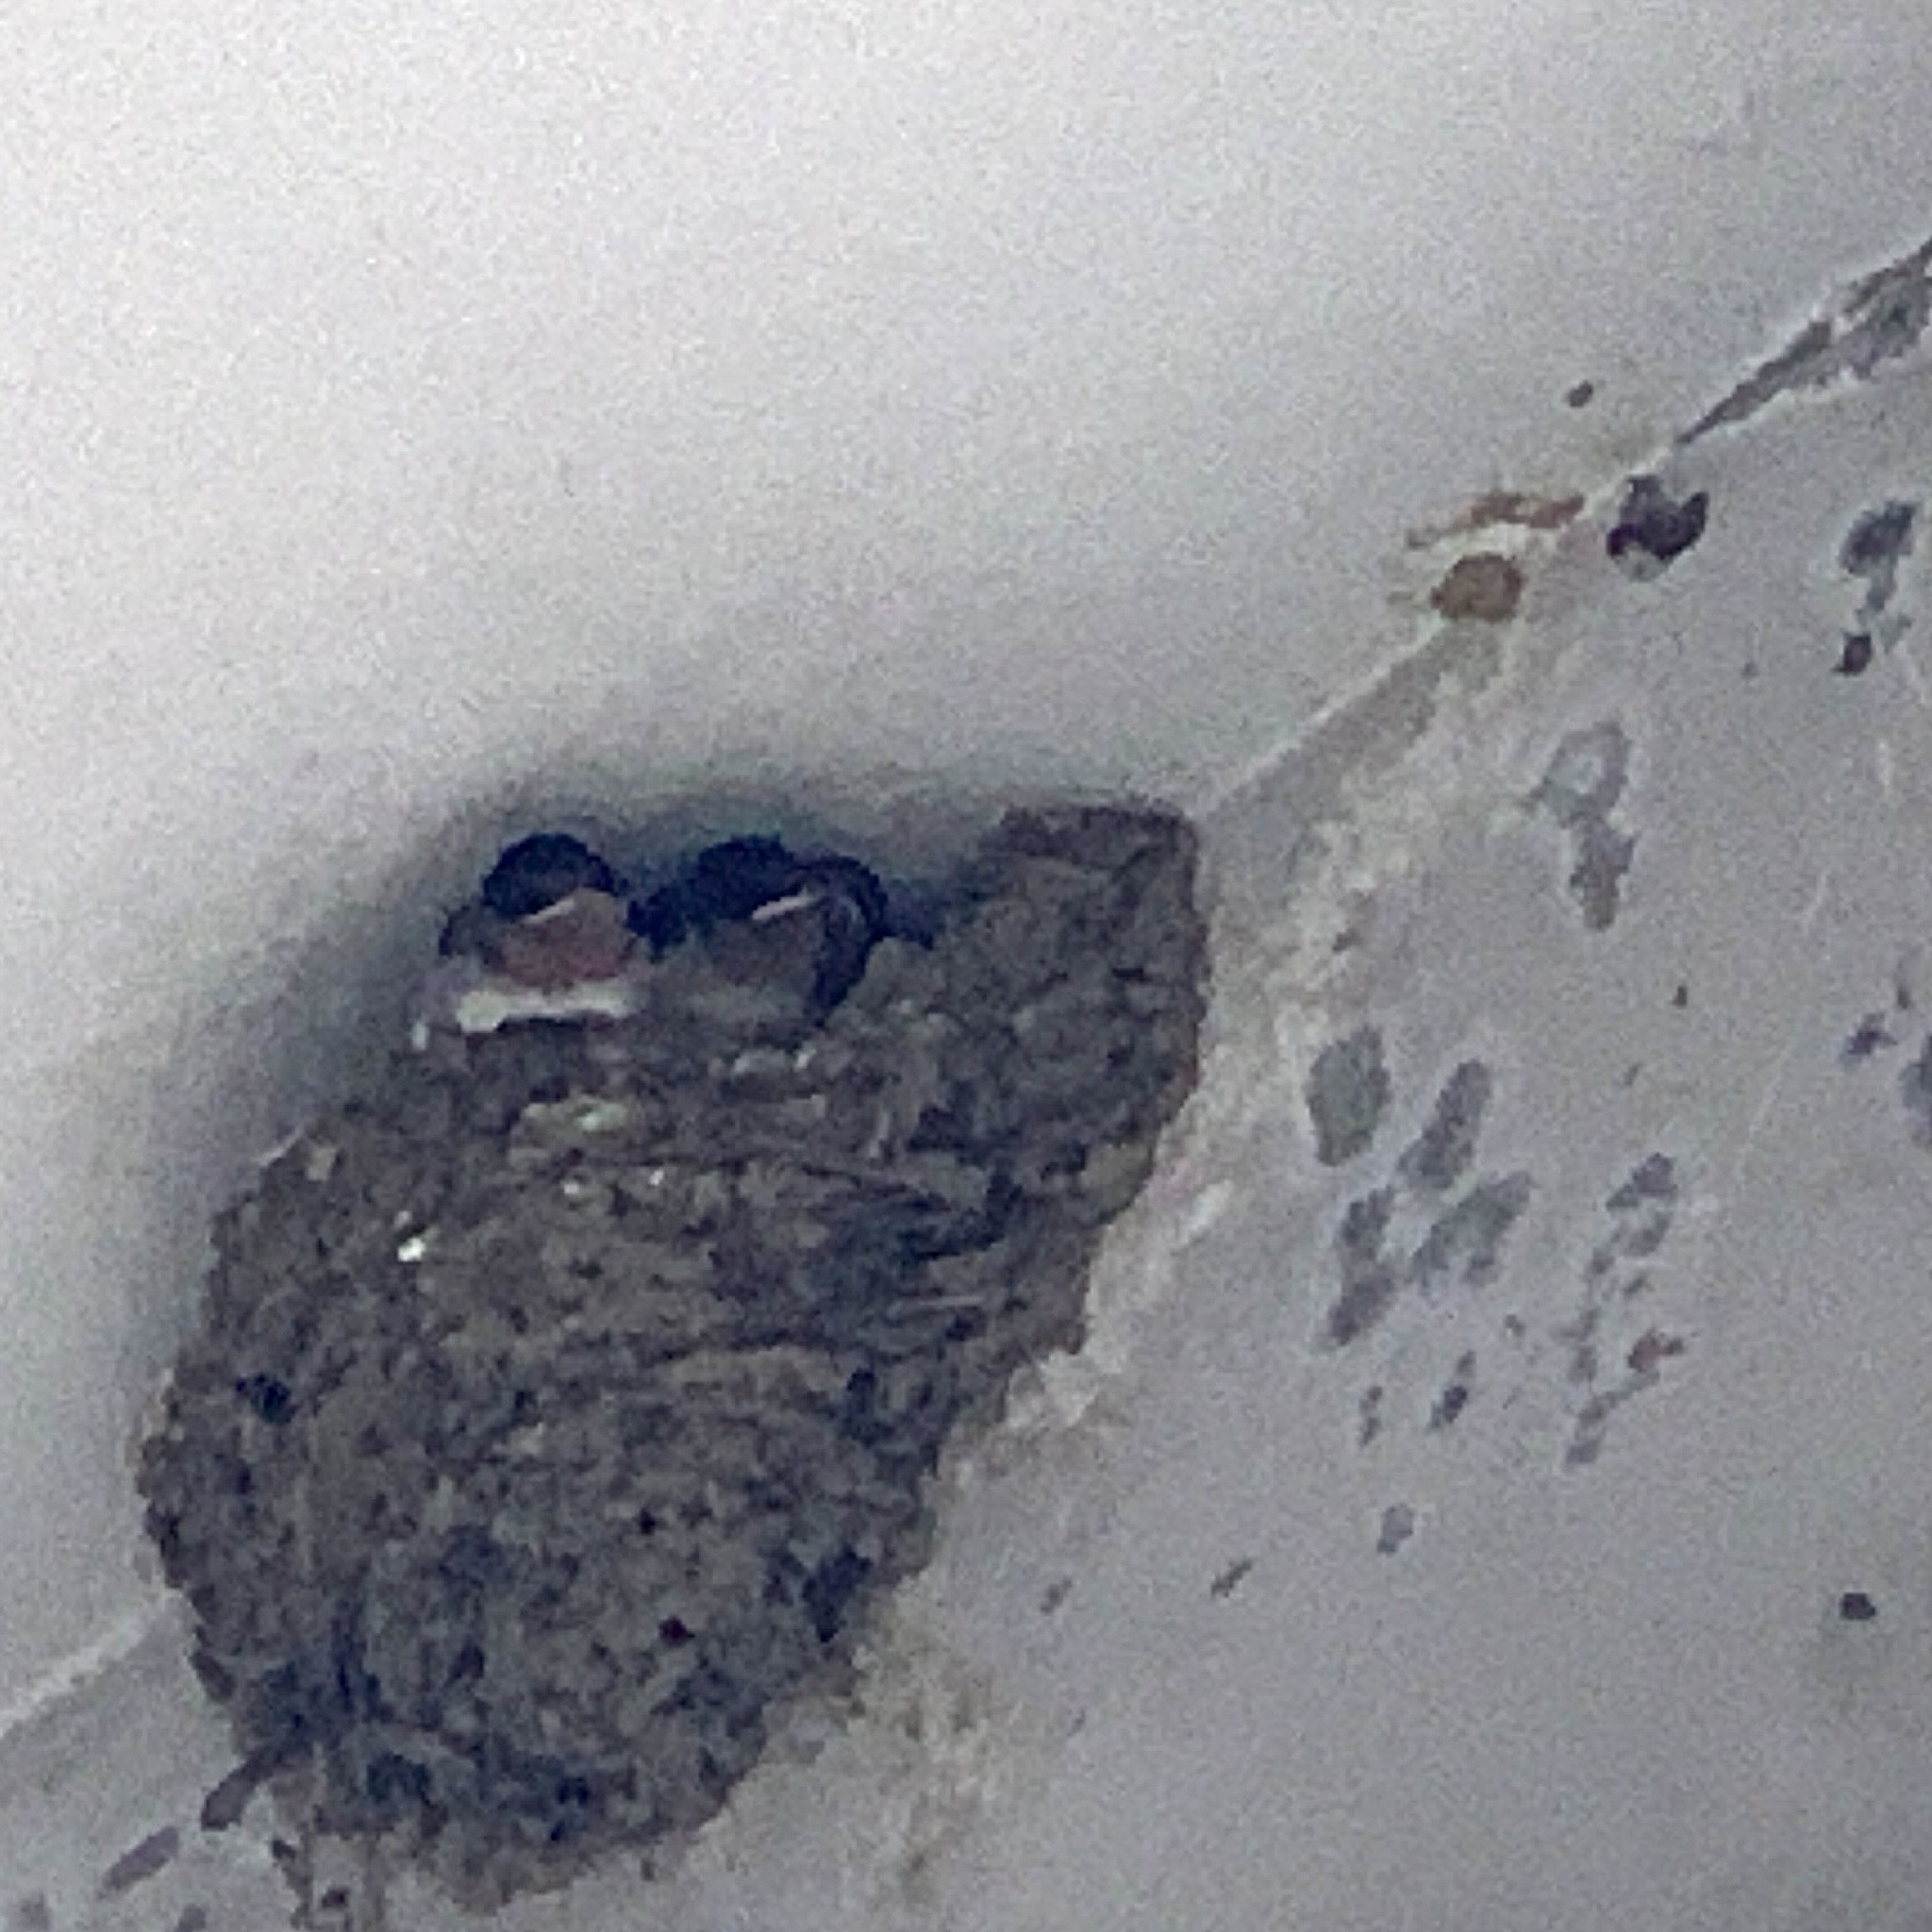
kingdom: Animalia
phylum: Chordata
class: Aves
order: Passeriformes
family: Hirundinidae
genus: Hirundo
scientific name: Hirundo tahitica
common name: Pacific swallow
